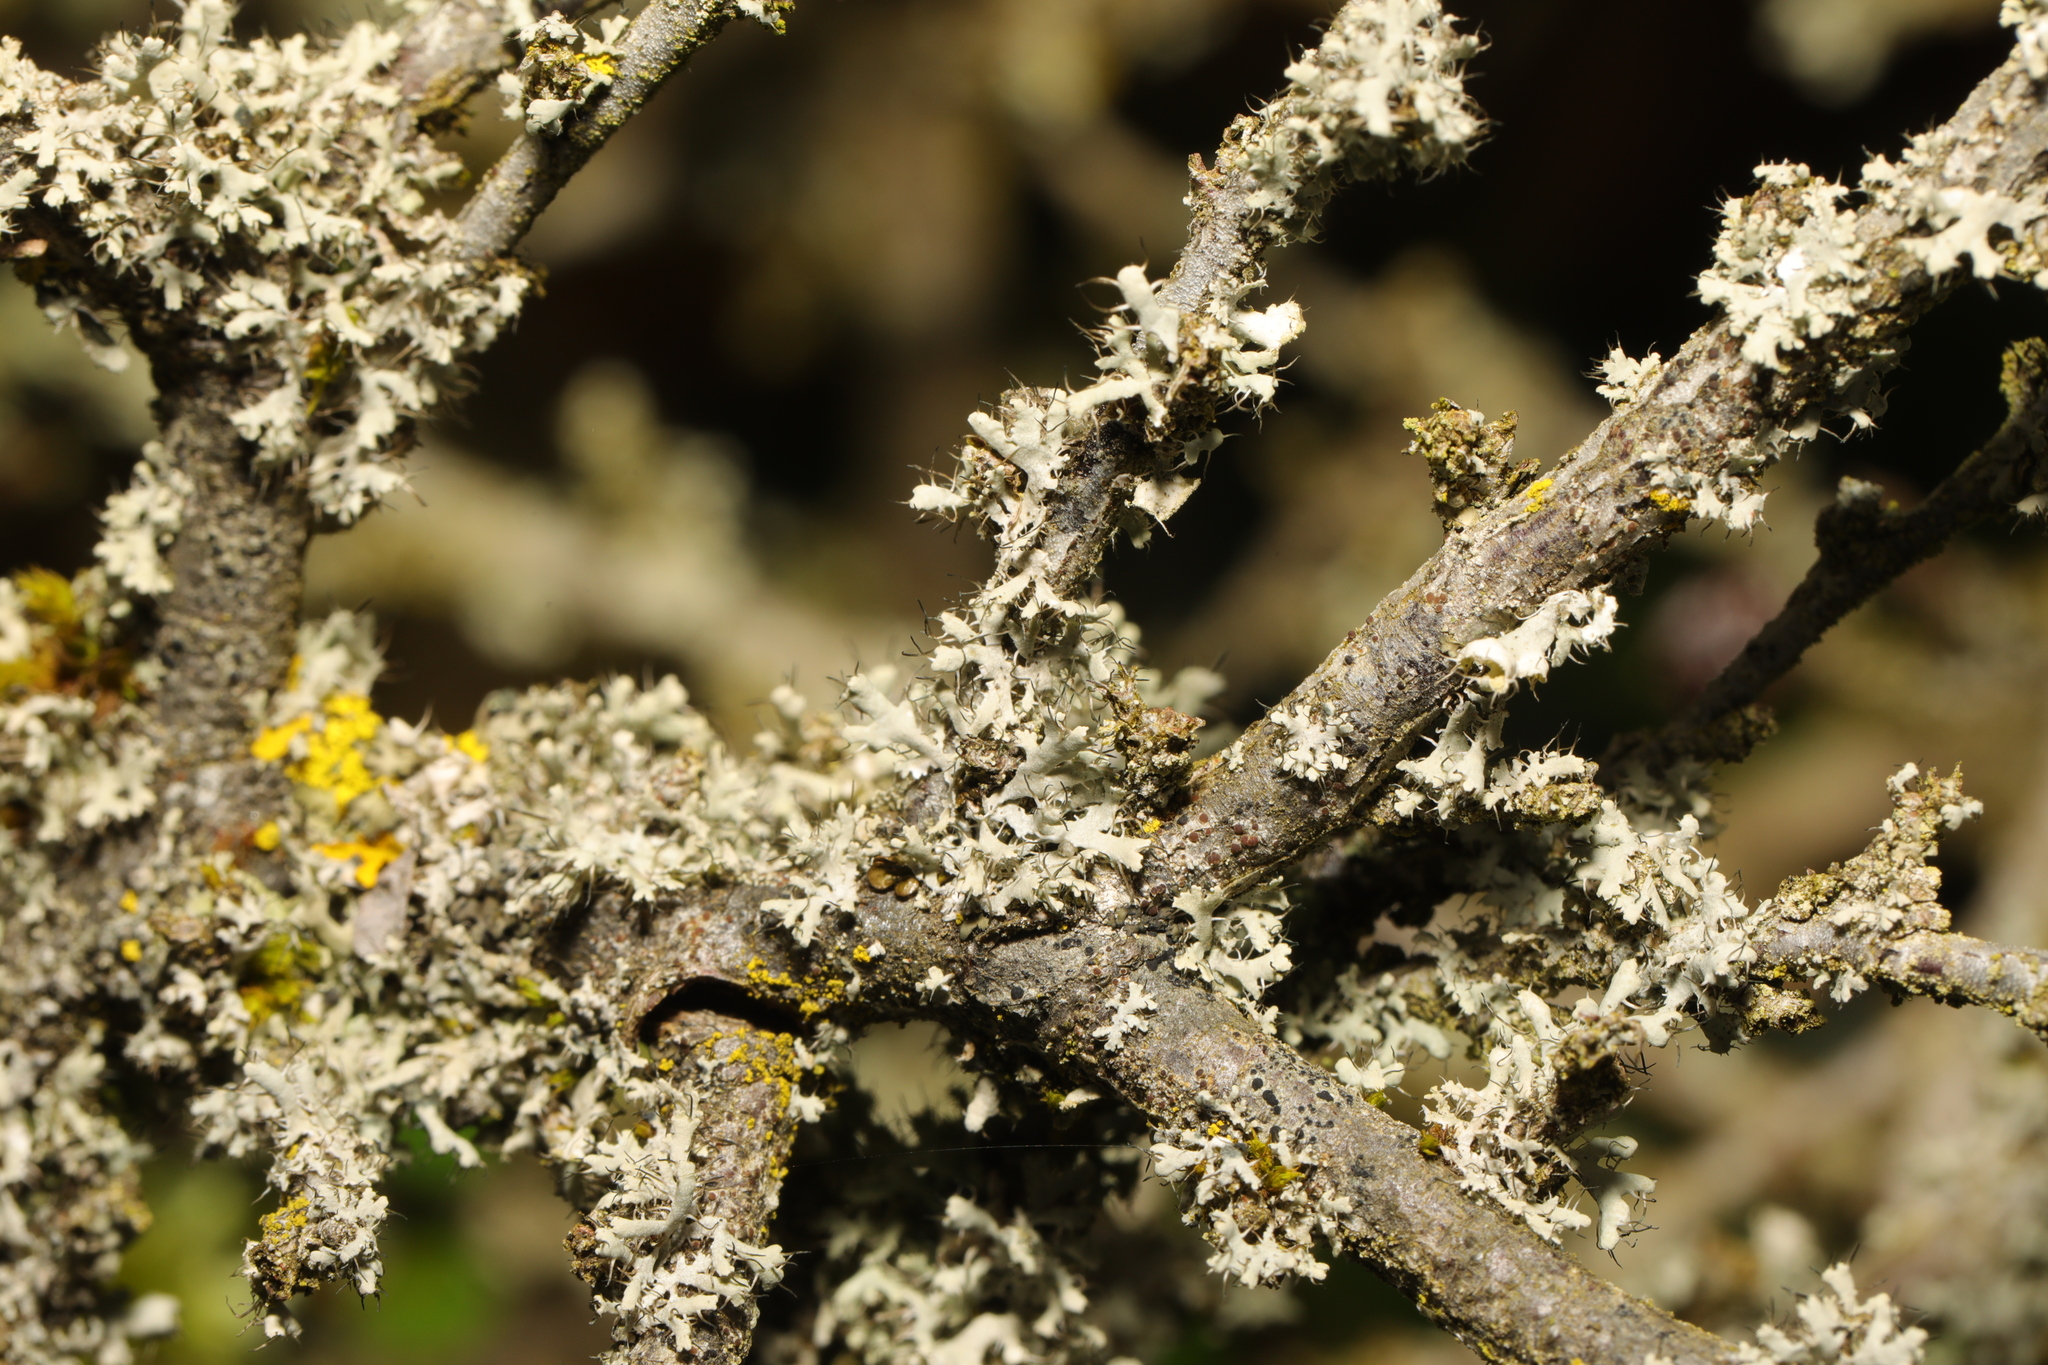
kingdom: Fungi
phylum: Ascomycota
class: Lecanoromycetes
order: Caliciales
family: Physciaceae
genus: Physcia
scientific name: Physcia adscendens
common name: Hooded rosette lichen
